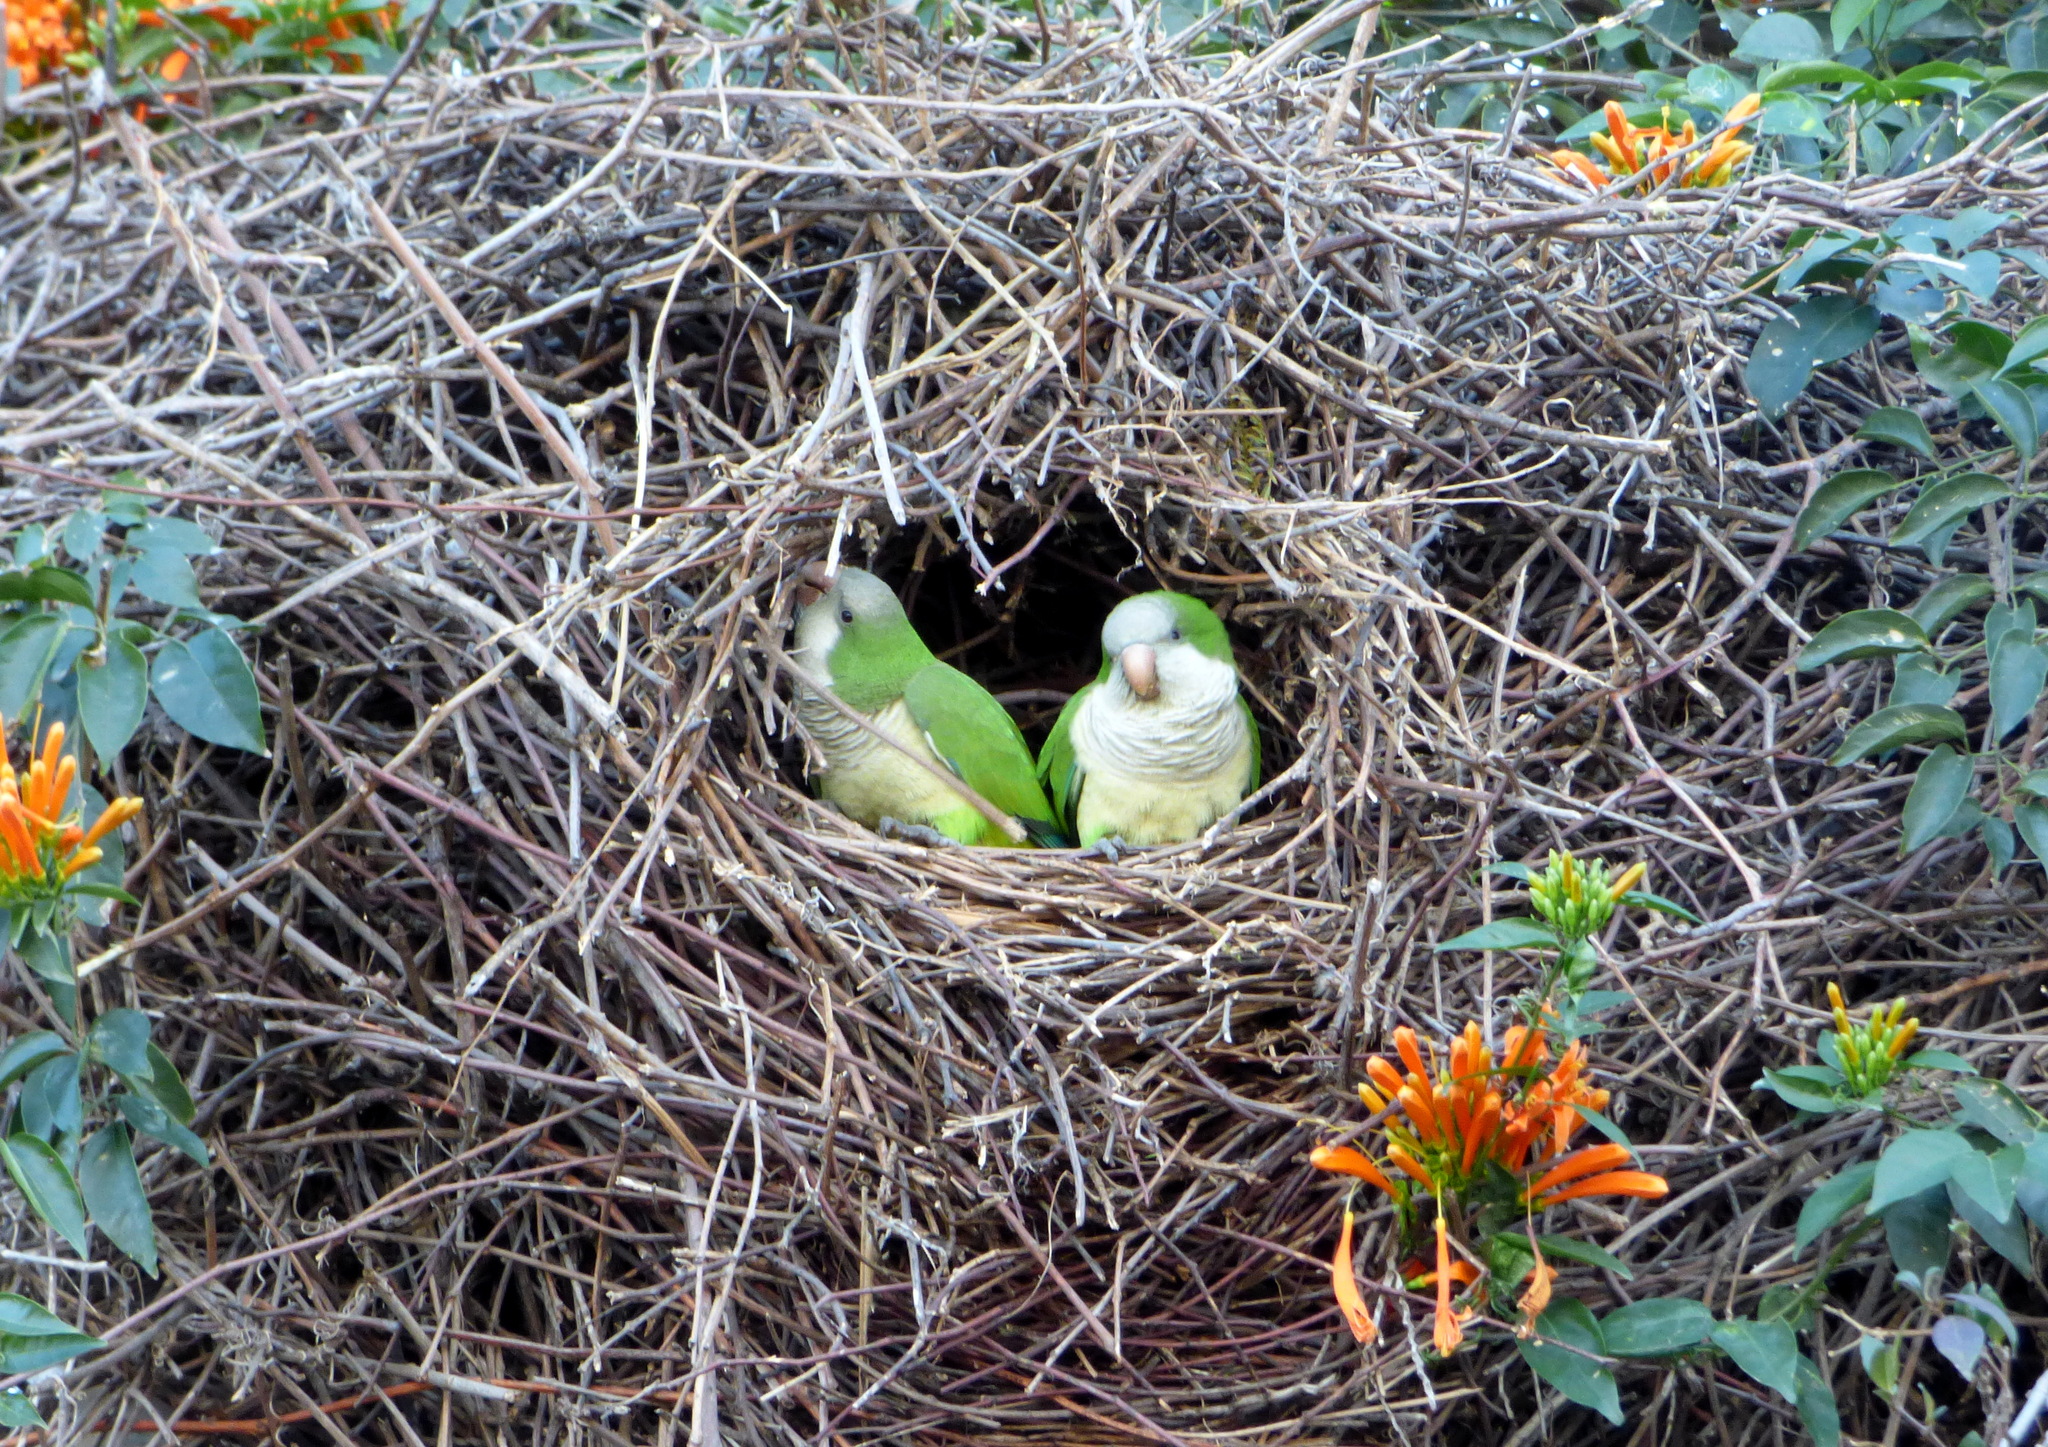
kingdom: Animalia
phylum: Chordata
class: Aves
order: Psittaciformes
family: Psittacidae
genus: Myiopsitta
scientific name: Myiopsitta monachus
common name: Monk parakeet
